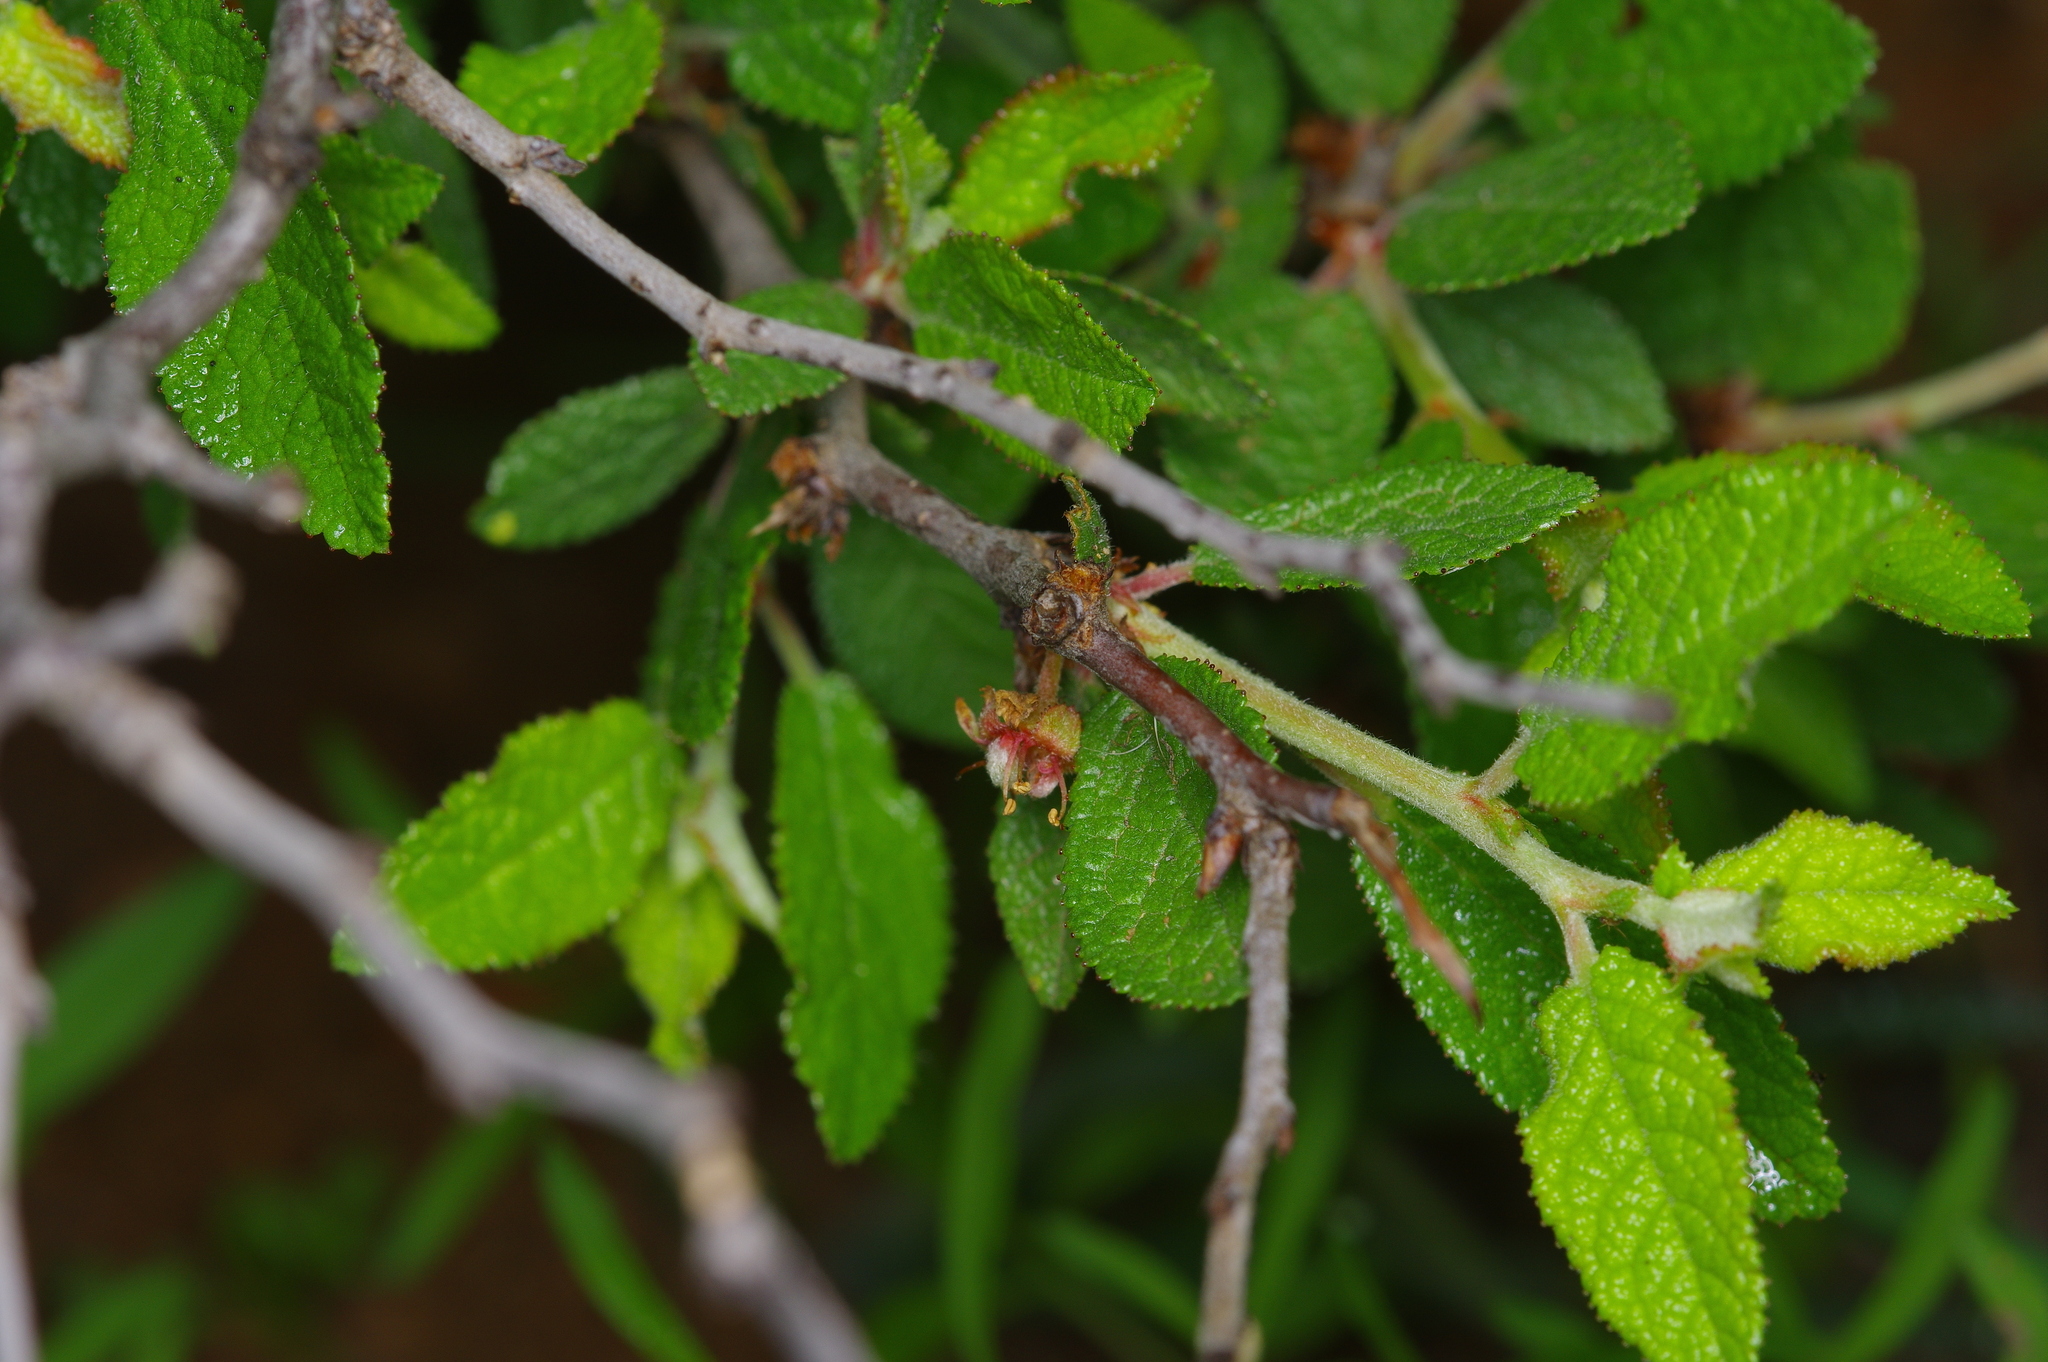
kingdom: Plantae
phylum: Tracheophyta
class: Magnoliopsida
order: Rosales
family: Rosaceae
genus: Prunus
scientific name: Prunus texana
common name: Texas almond cherry
